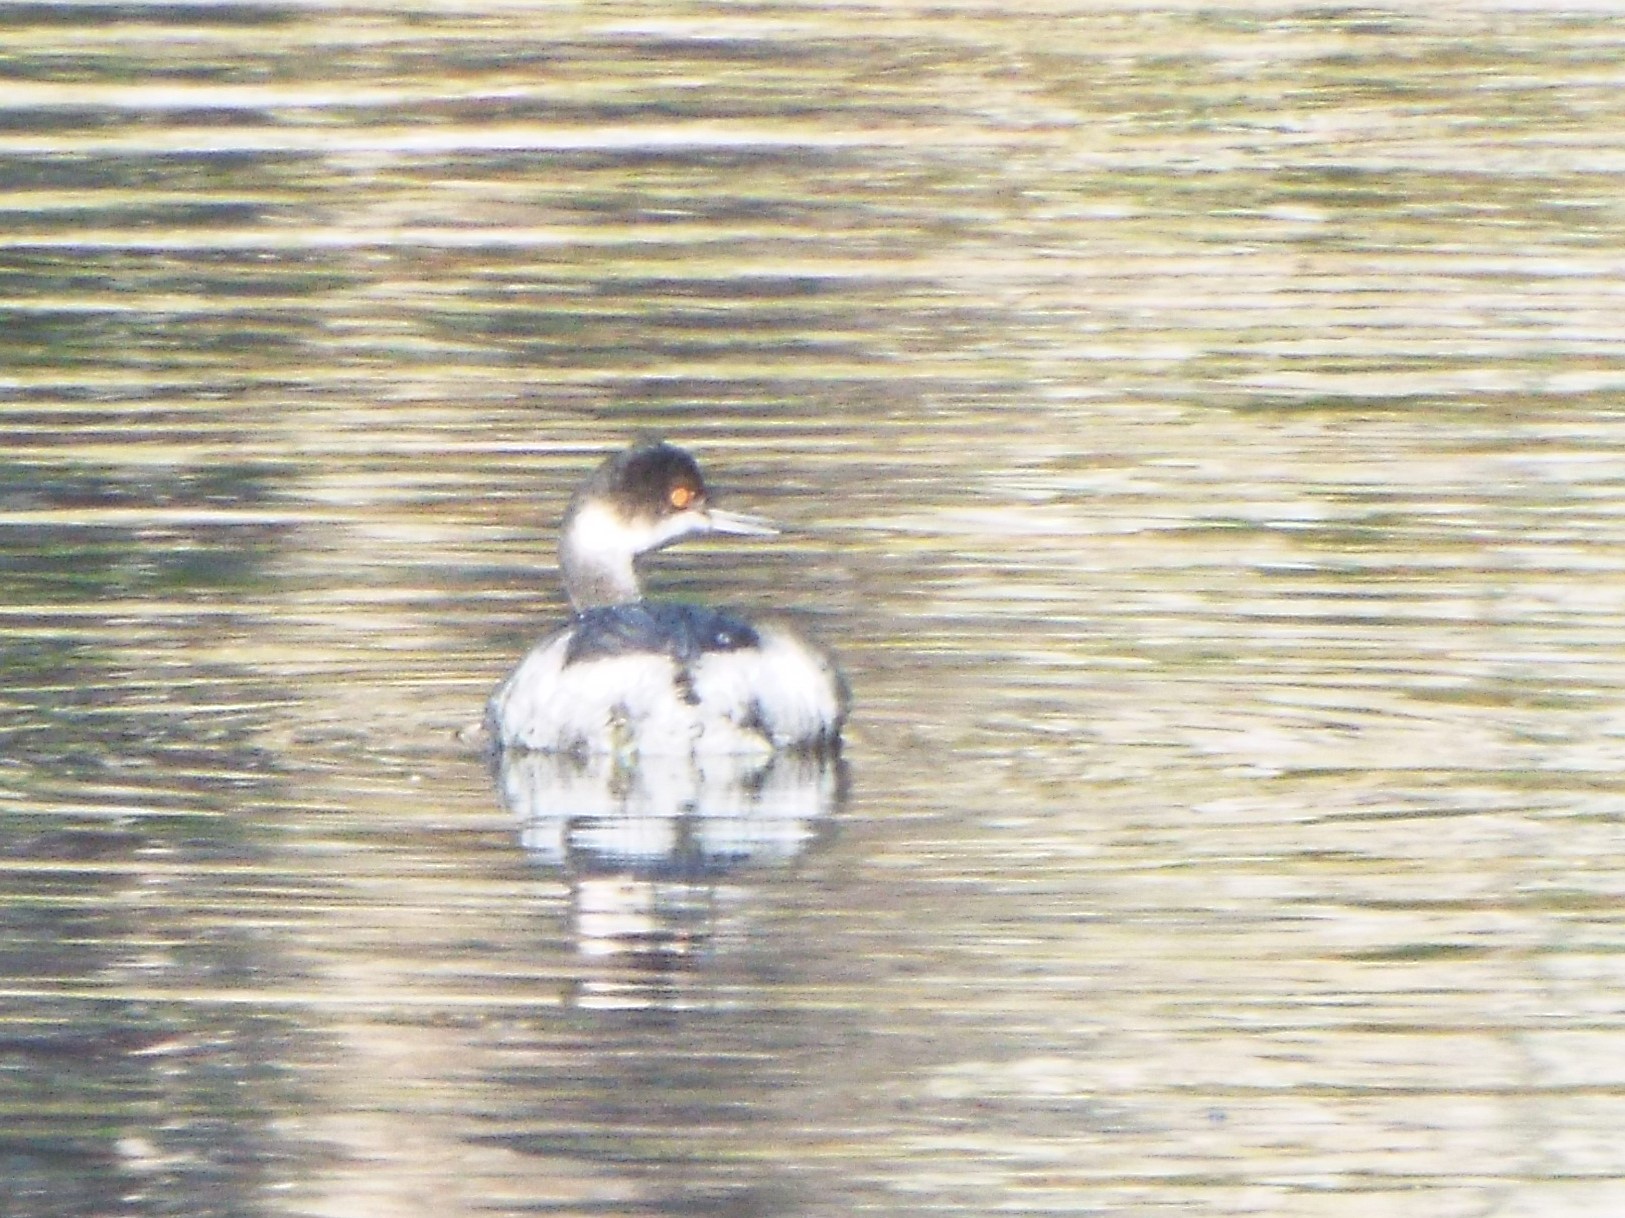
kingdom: Animalia
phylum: Chordata
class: Aves
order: Podicipediformes
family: Podicipedidae
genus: Podiceps
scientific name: Podiceps nigricollis
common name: Black-necked grebe
